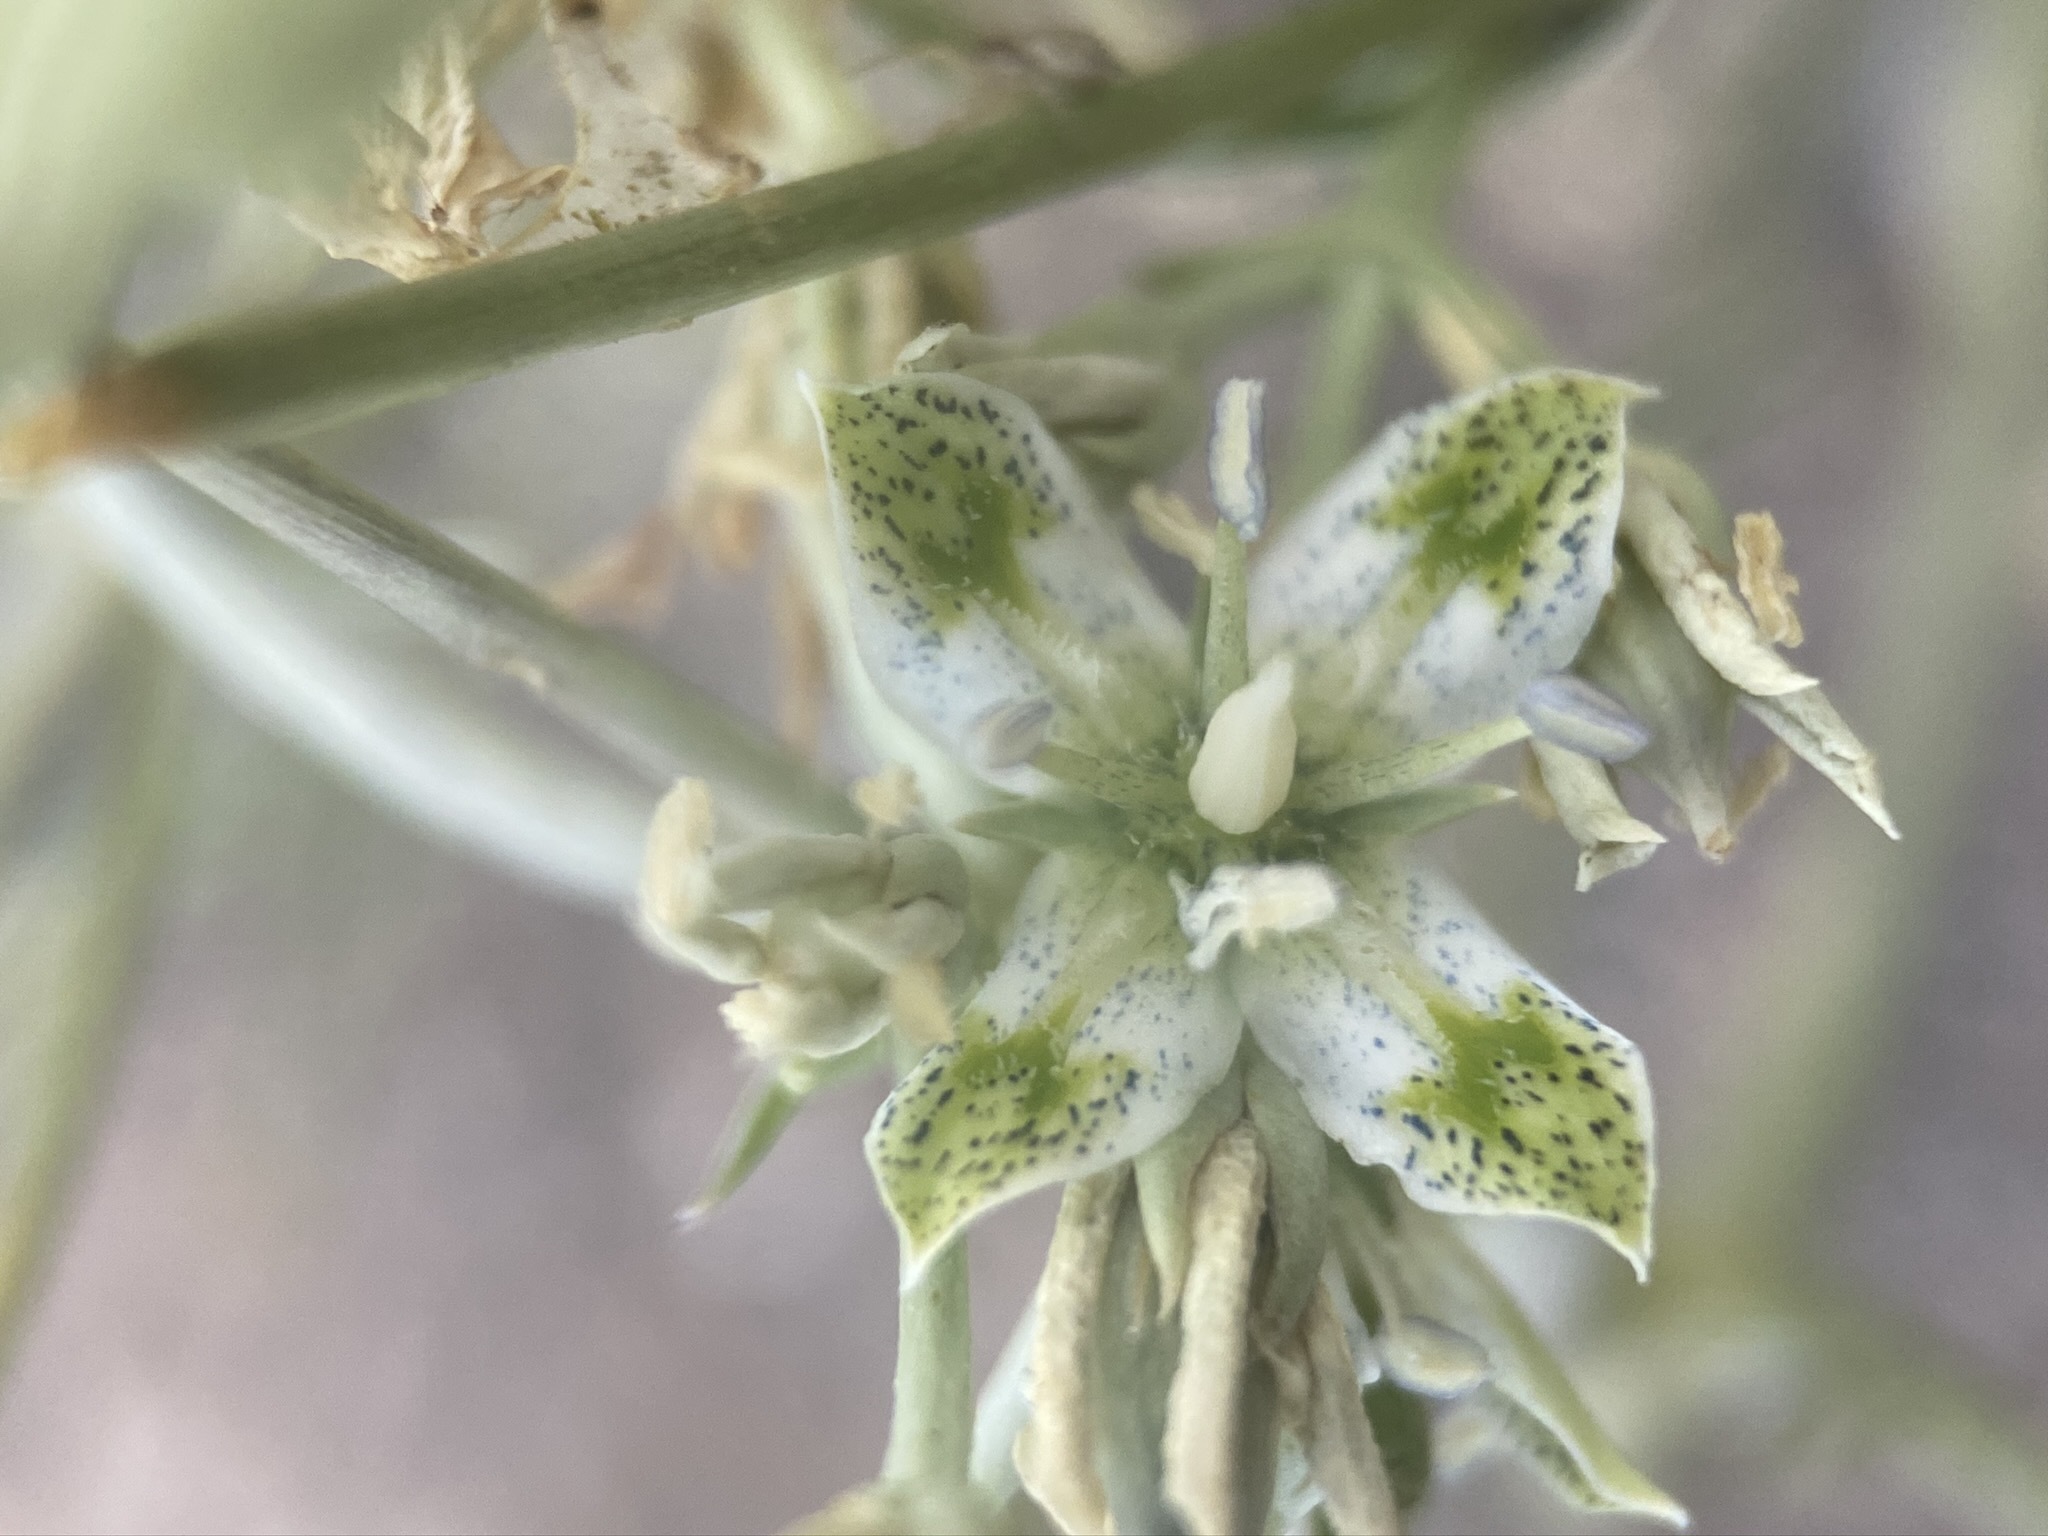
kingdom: Plantae
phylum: Tracheophyta
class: Magnoliopsida
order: Gentianales
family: Gentianaceae
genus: Frasera
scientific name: Frasera albomarginata
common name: Desert frasera
